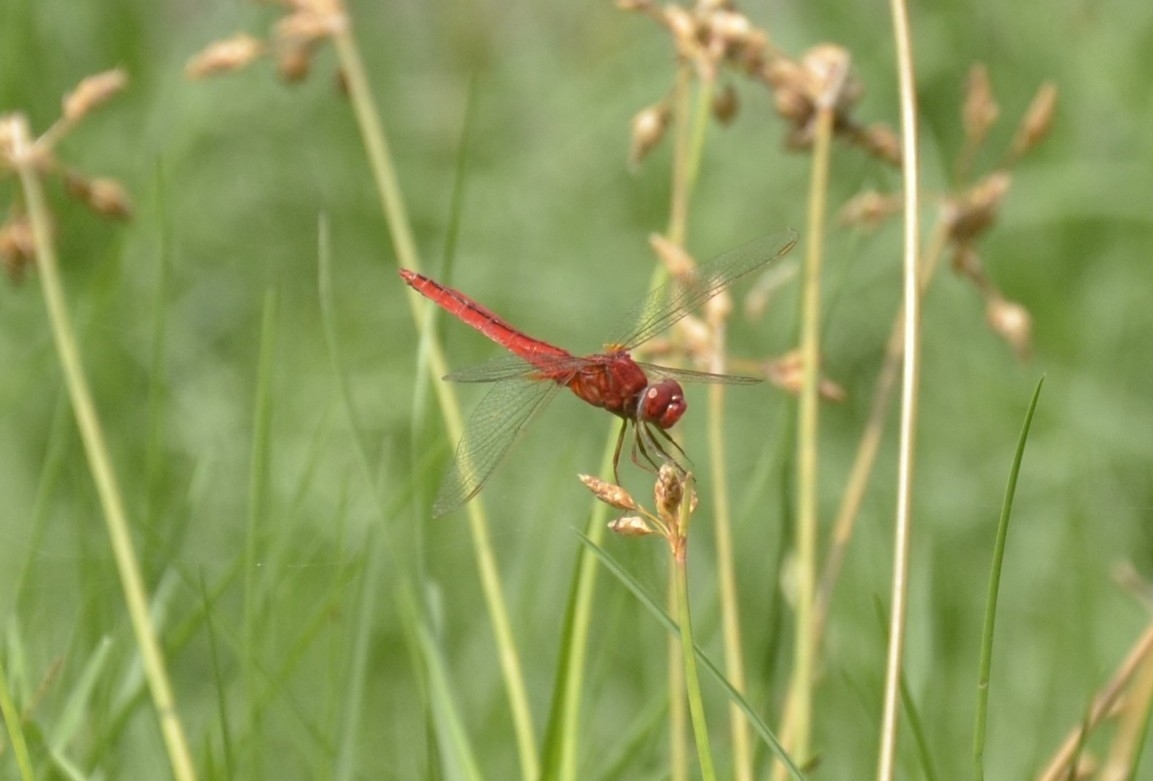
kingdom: Animalia
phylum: Arthropoda
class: Insecta
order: Odonata
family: Libellulidae
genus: Crocothemis
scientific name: Crocothemis servilia
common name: Scarlet skimmer
